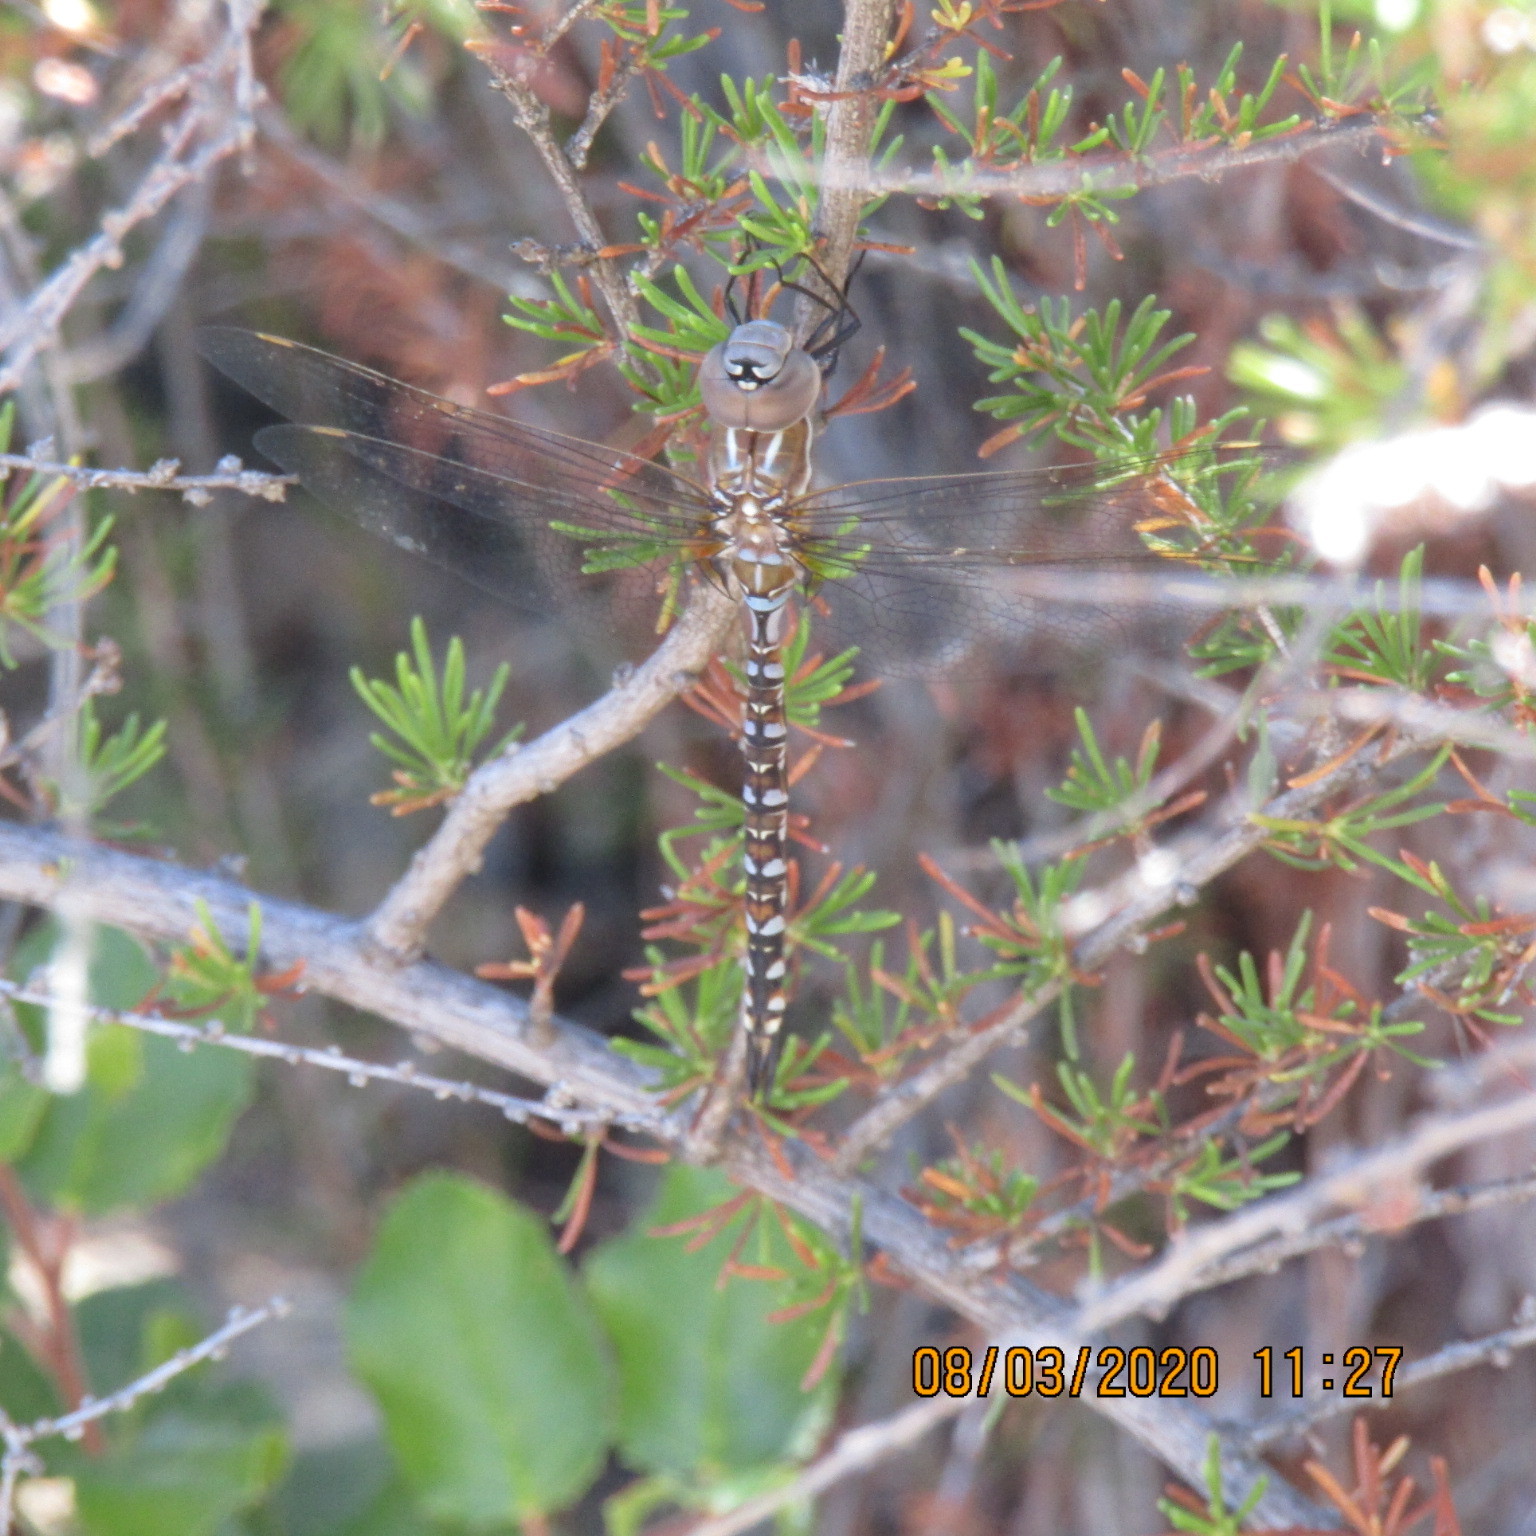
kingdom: Animalia
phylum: Arthropoda
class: Insecta
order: Odonata
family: Aeshnidae
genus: Rhionaeschna
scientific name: Rhionaeschna multicolor
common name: Blue-eyed darner
